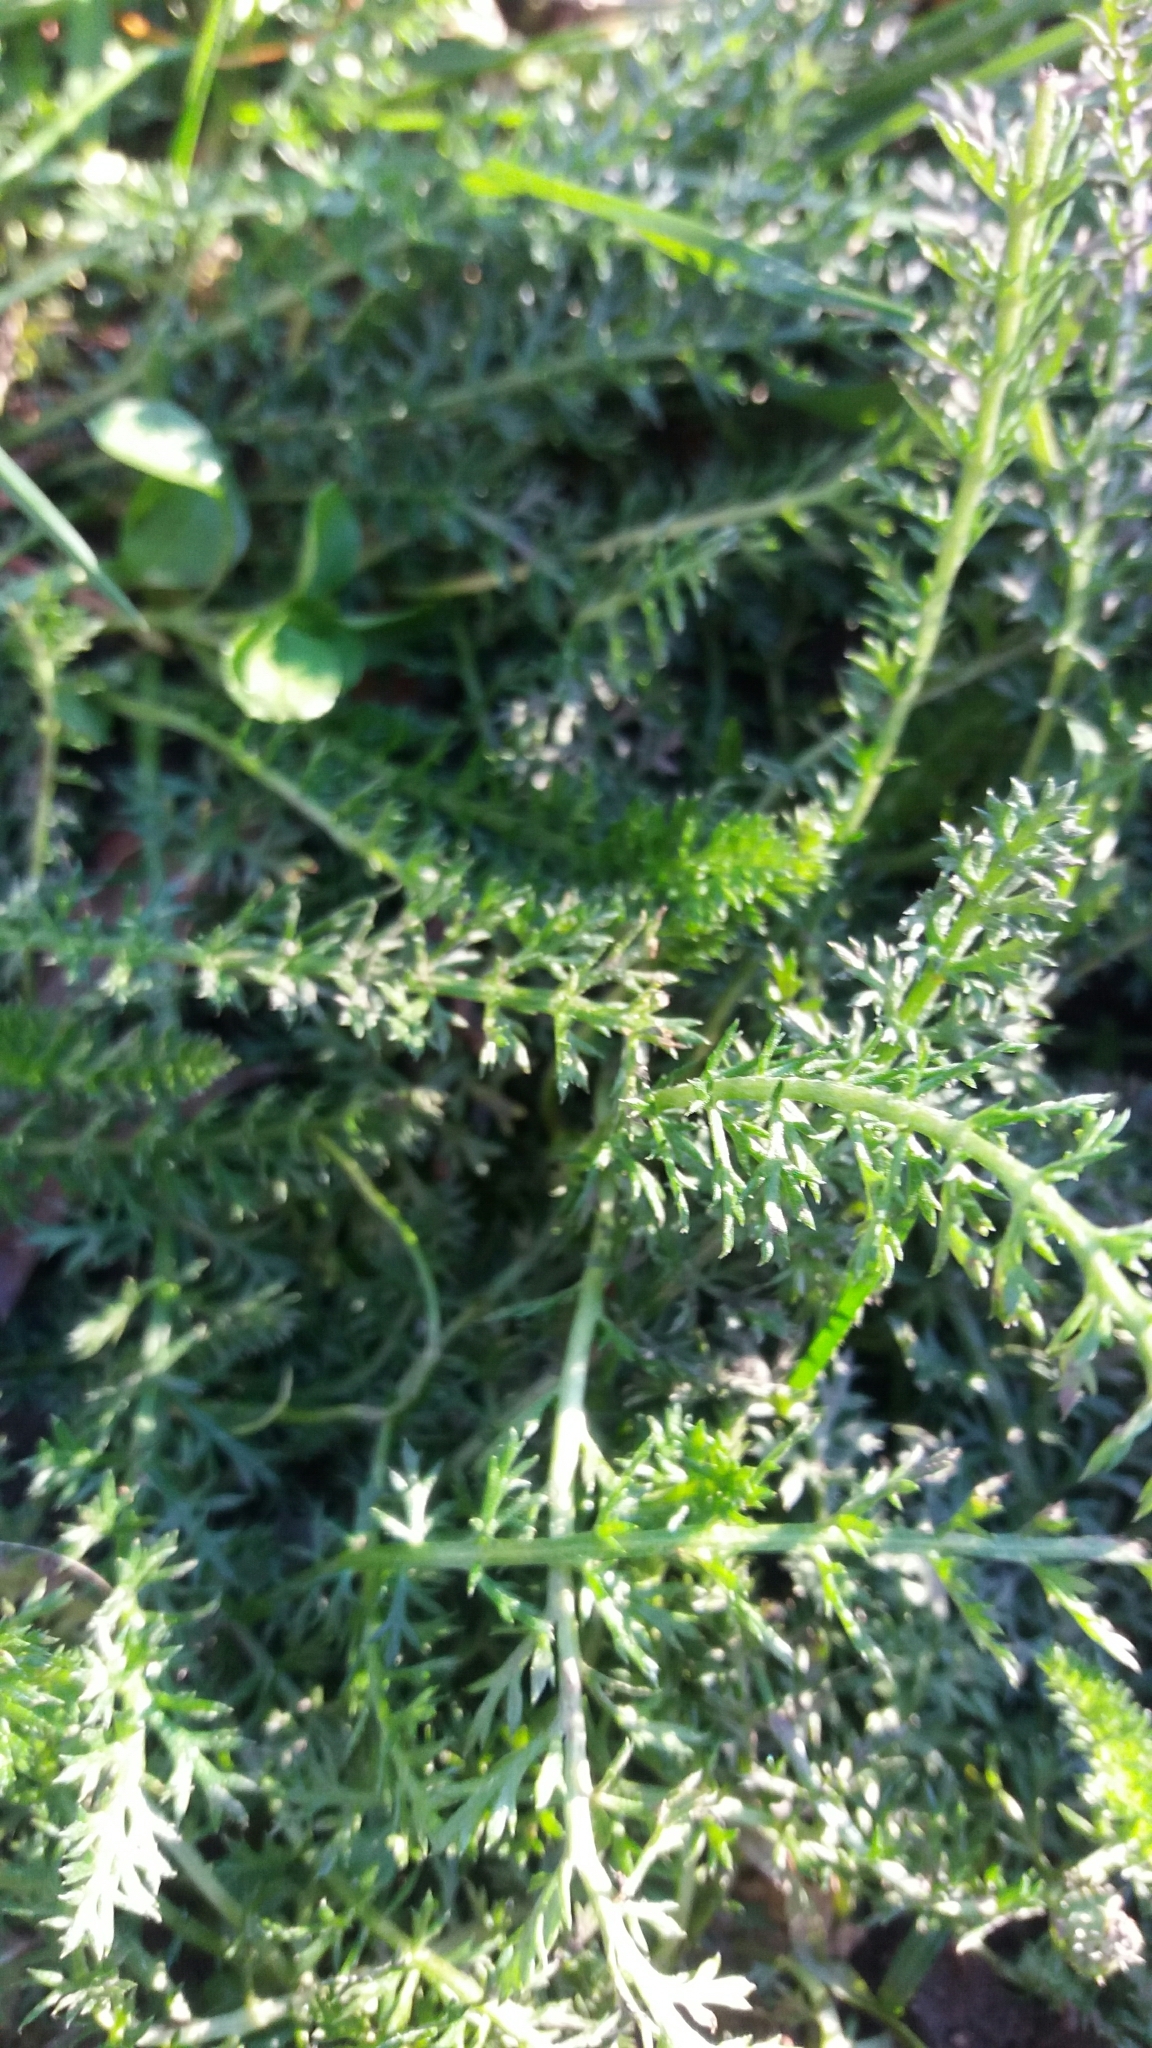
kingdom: Plantae
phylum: Tracheophyta
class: Magnoliopsida
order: Asterales
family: Asteraceae
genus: Achillea
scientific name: Achillea millefolium
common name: Yarrow
